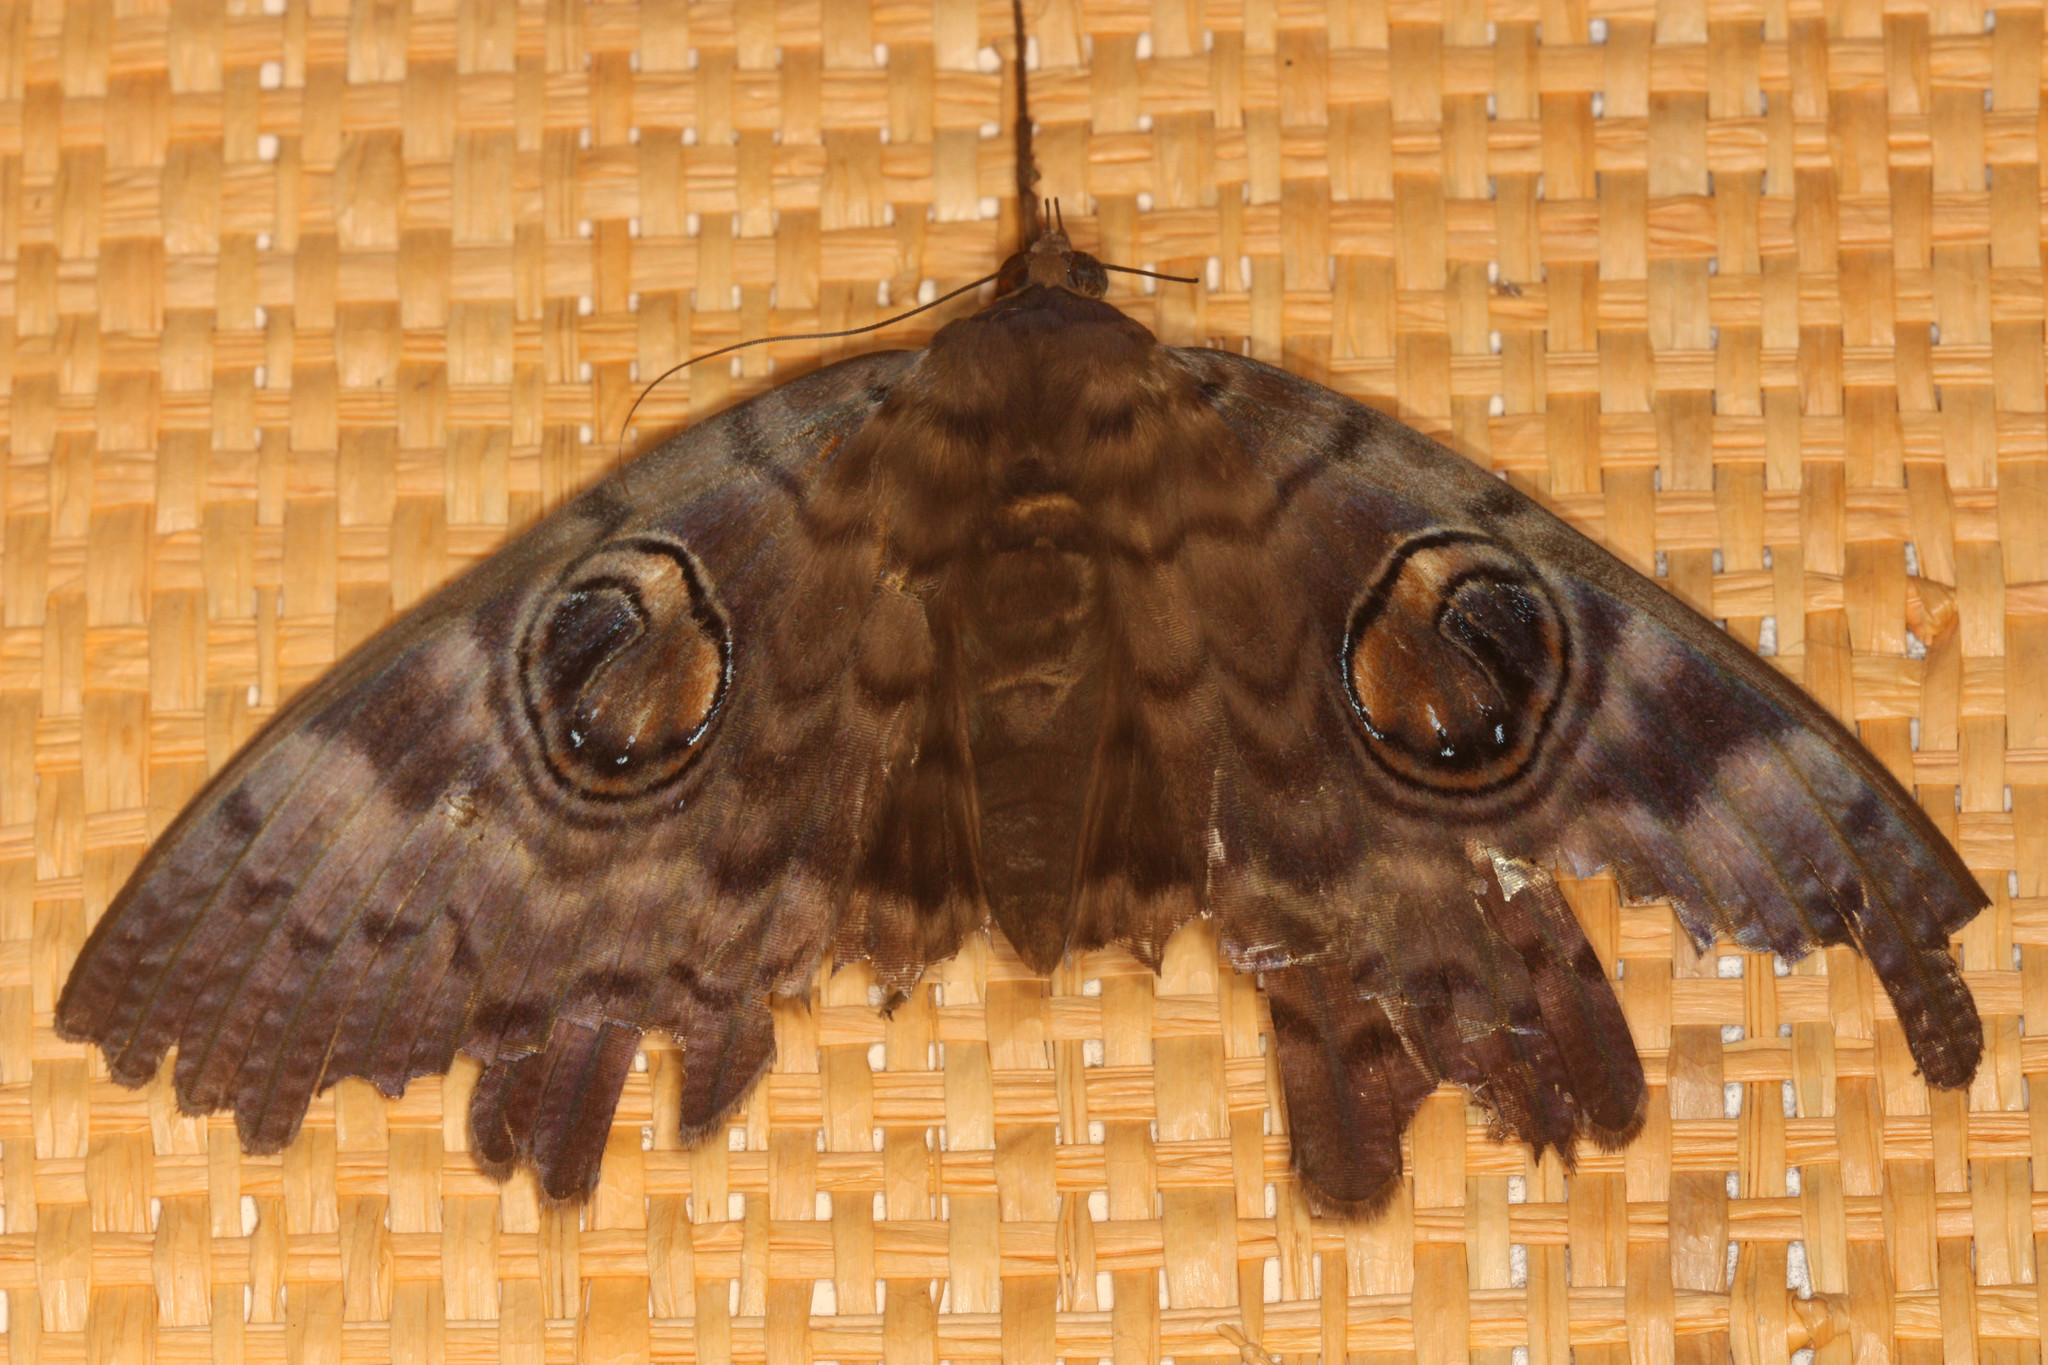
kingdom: Animalia
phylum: Arthropoda
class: Insecta
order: Lepidoptera
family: Erebidae
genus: Erebus
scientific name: Erebus walkeri
